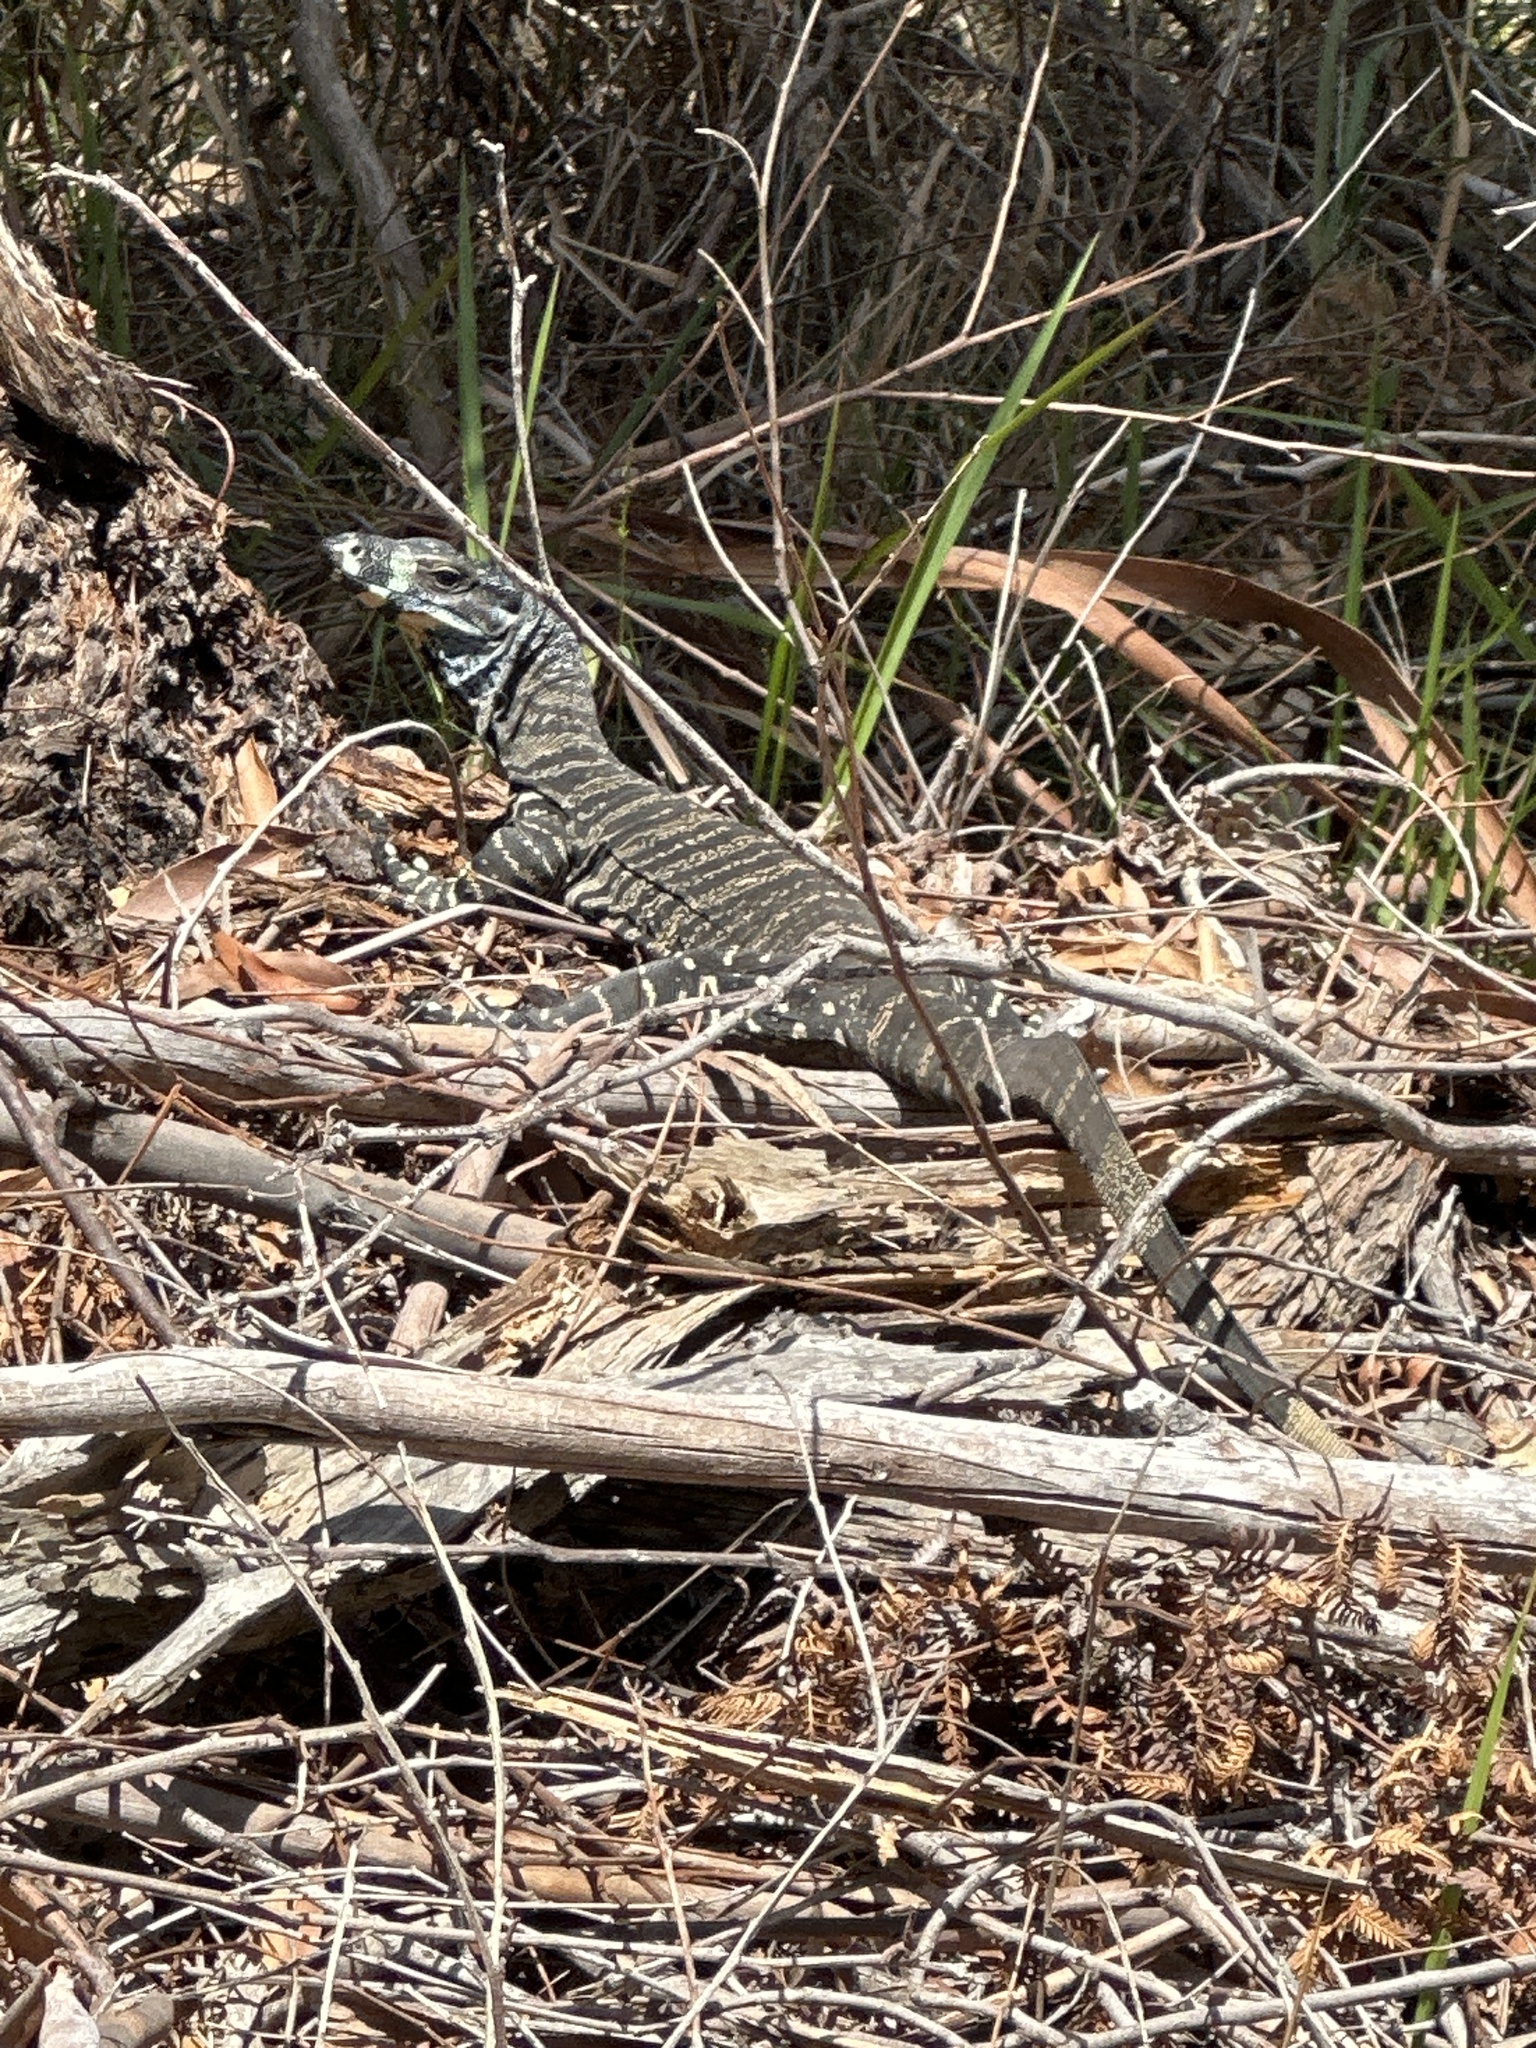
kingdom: Animalia
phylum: Chordata
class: Squamata
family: Varanidae
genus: Varanus
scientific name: Varanus varius
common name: Lace monitor
